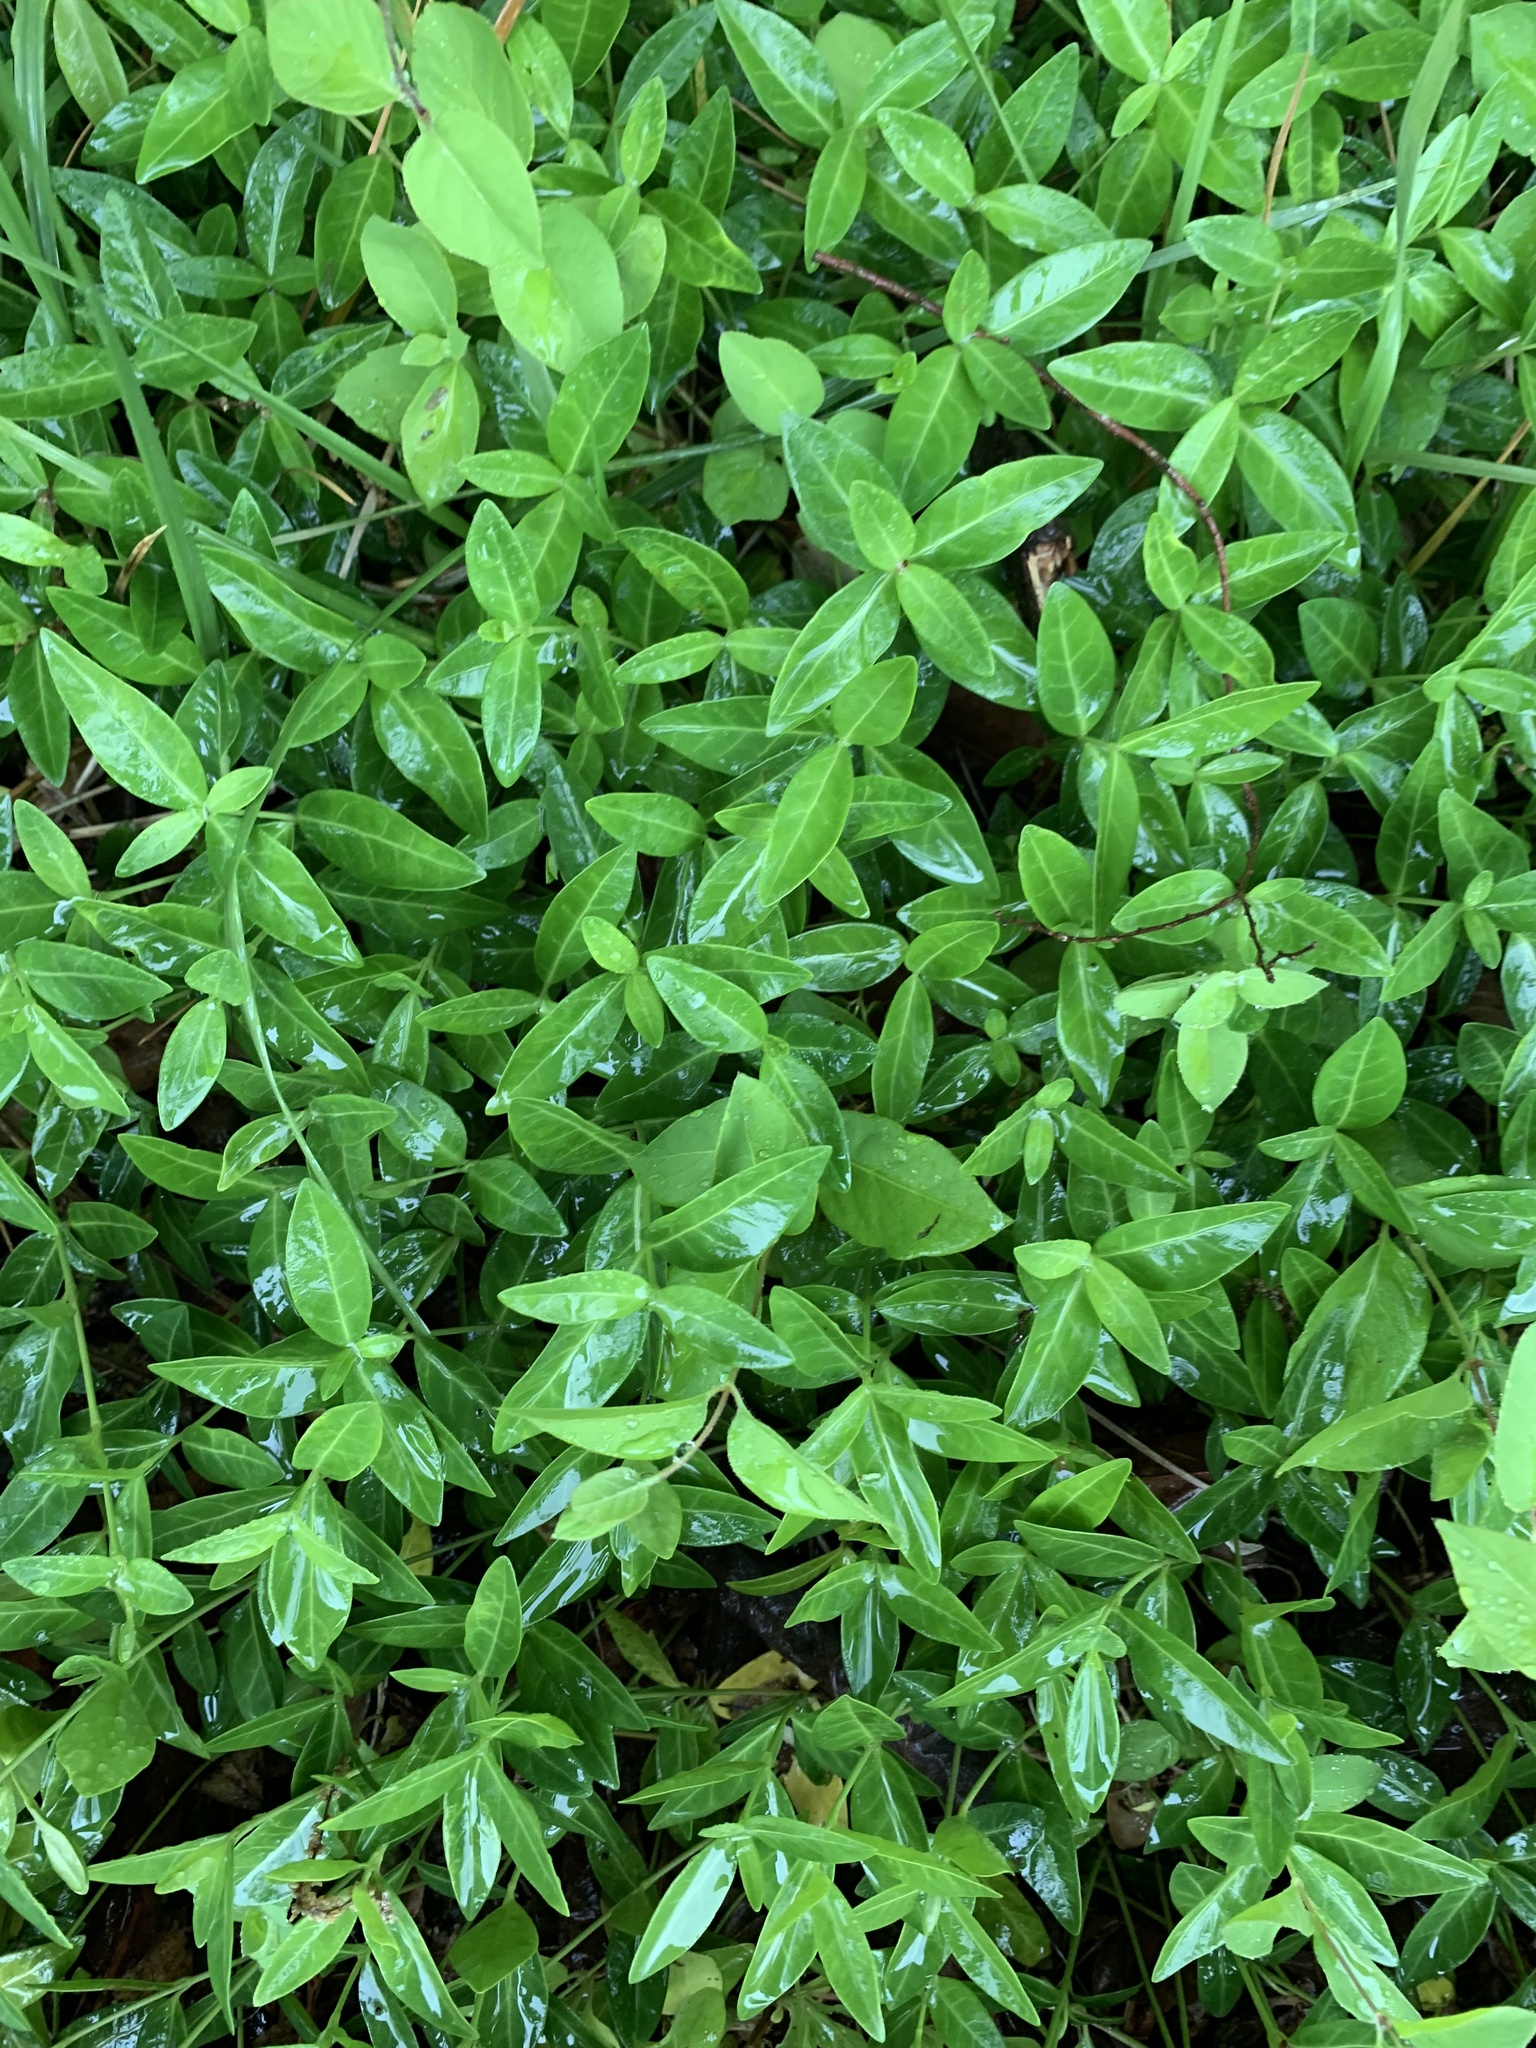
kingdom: Plantae
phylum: Tracheophyta
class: Magnoliopsida
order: Gentianales
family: Apocynaceae
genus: Vinca
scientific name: Vinca minor
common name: Lesser periwinkle
